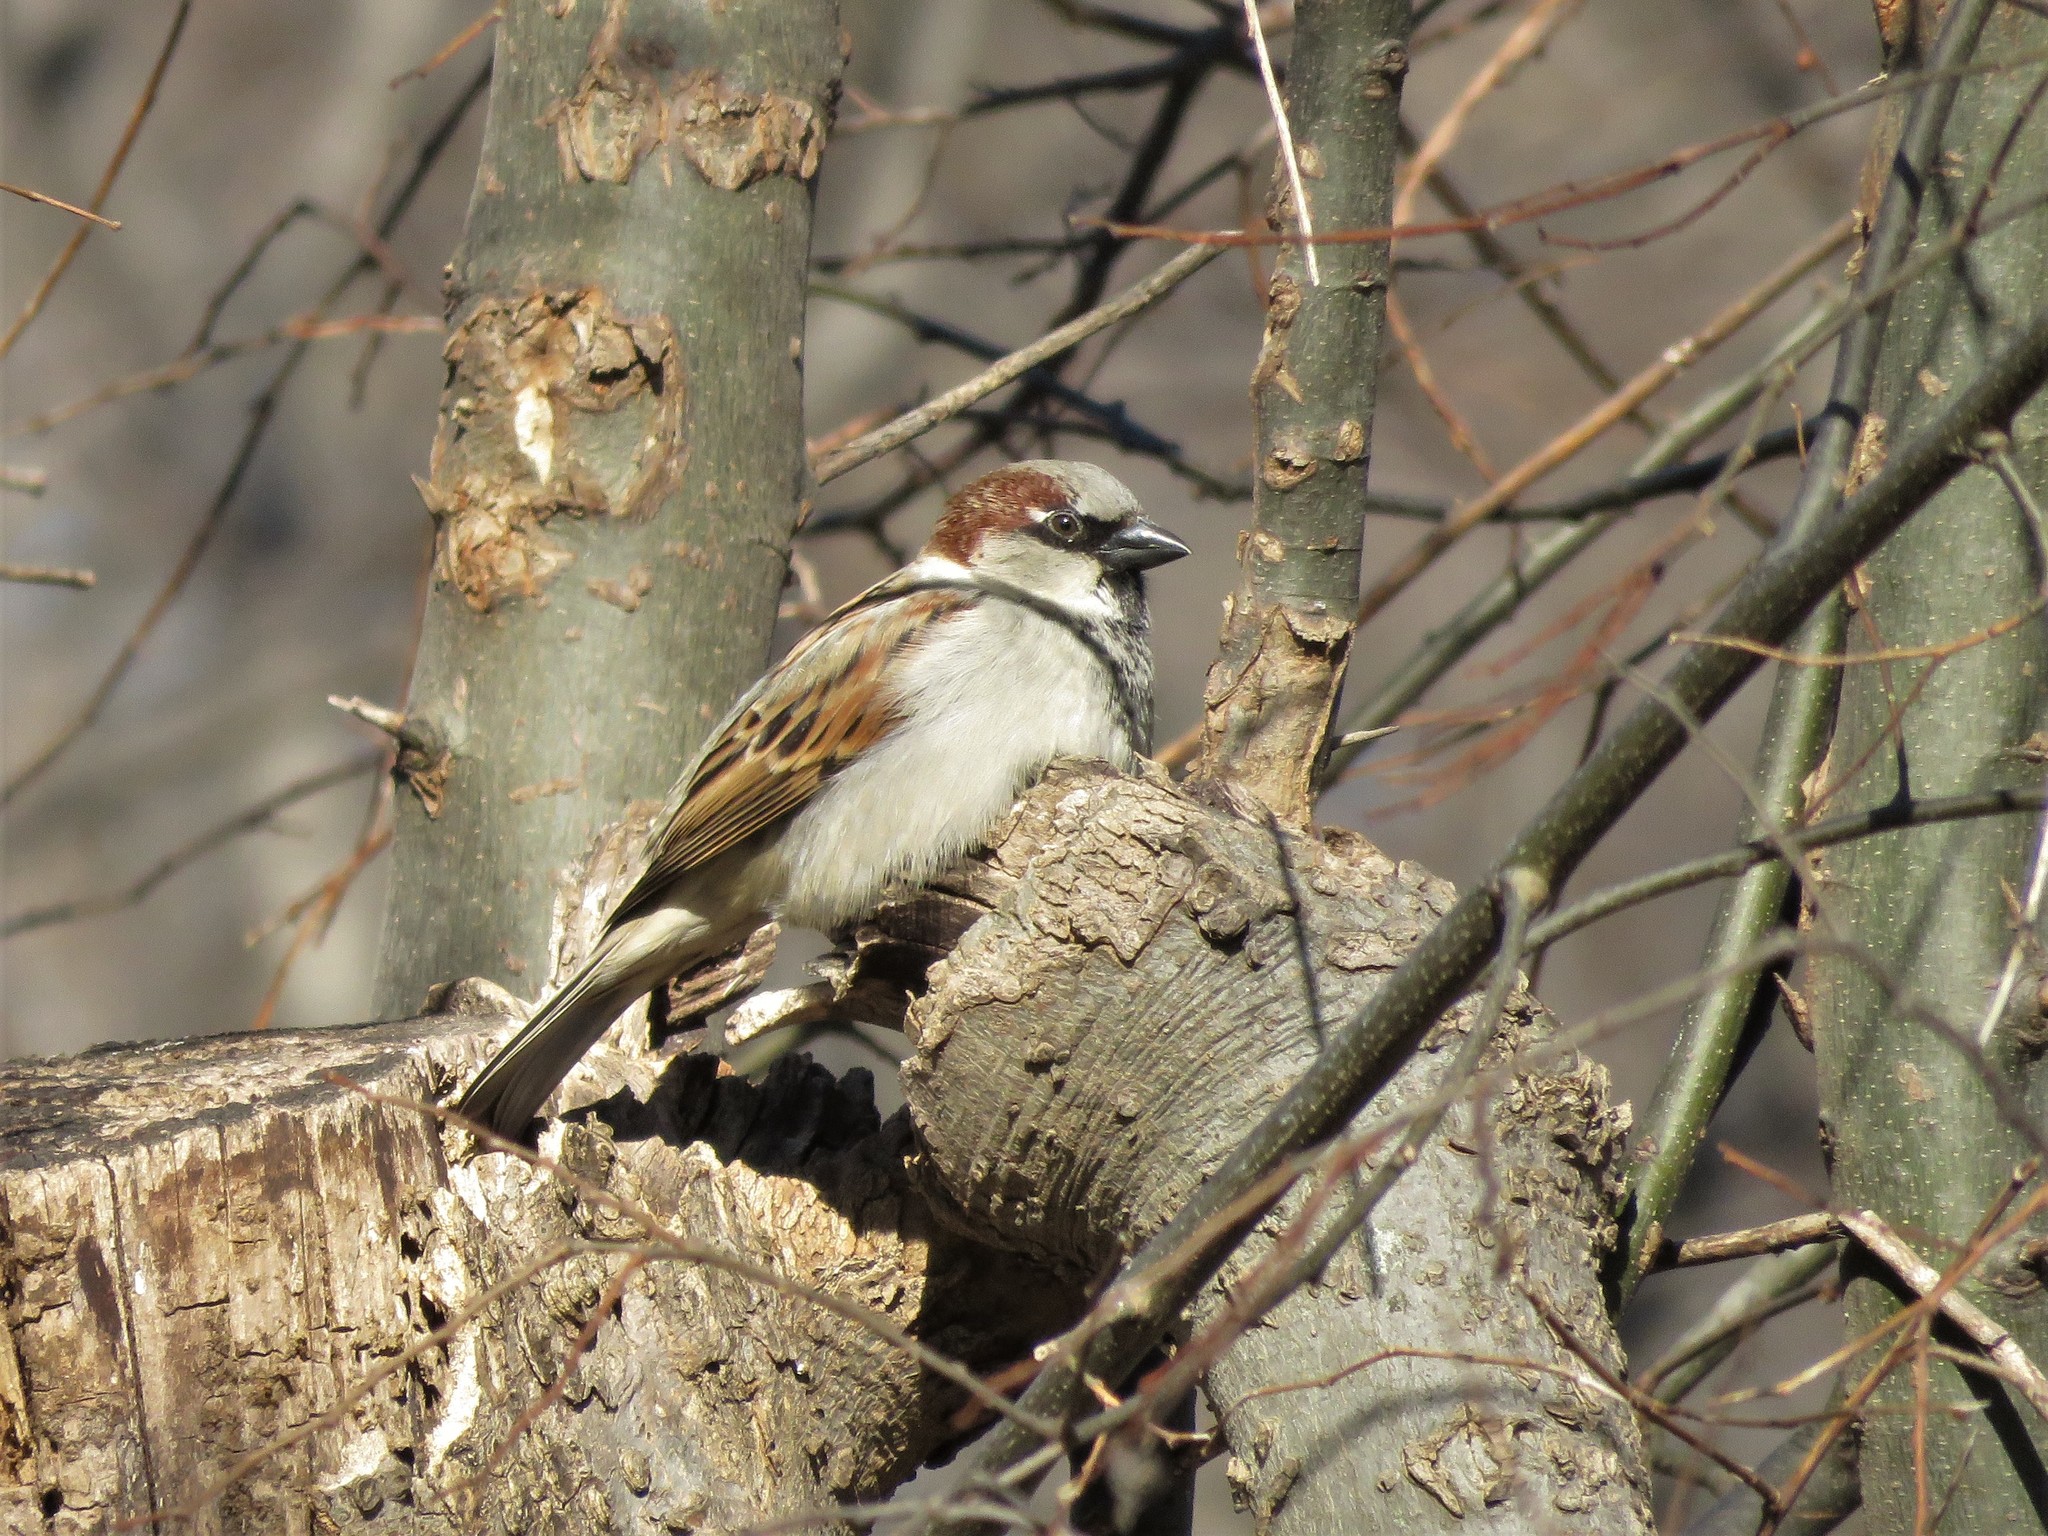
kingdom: Animalia
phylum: Chordata
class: Aves
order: Passeriformes
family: Passeridae
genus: Passer
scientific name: Passer domesticus
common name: House sparrow
